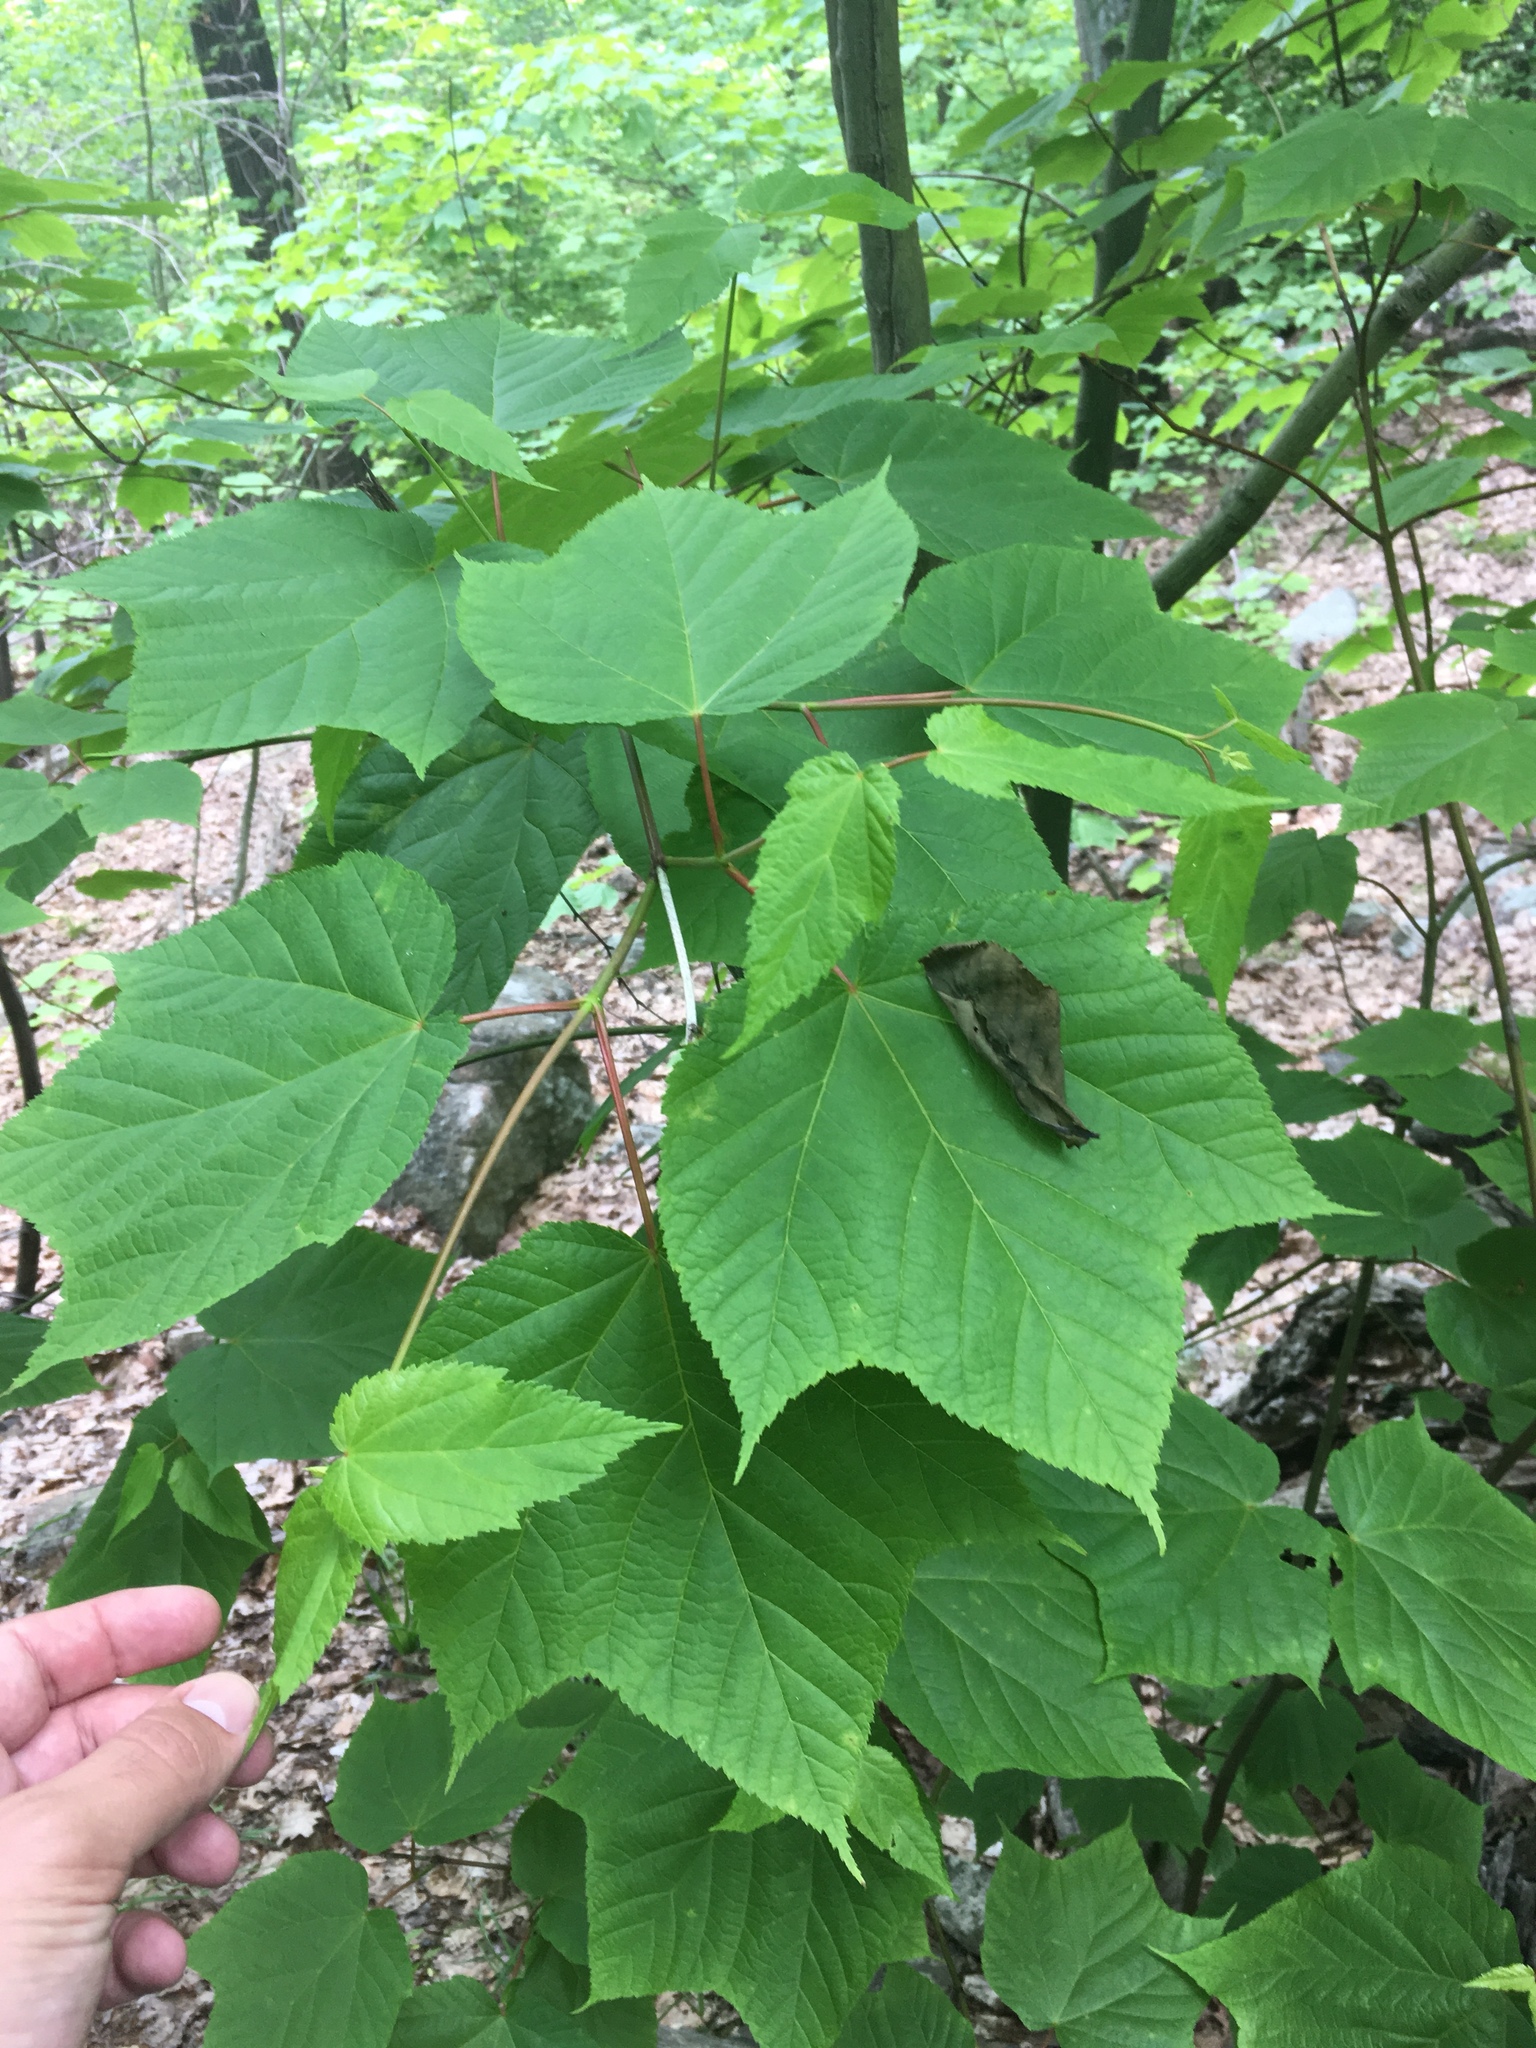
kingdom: Plantae
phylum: Tracheophyta
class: Magnoliopsida
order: Sapindales
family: Sapindaceae
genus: Acer
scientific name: Acer pensylvanicum
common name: Moosewood
